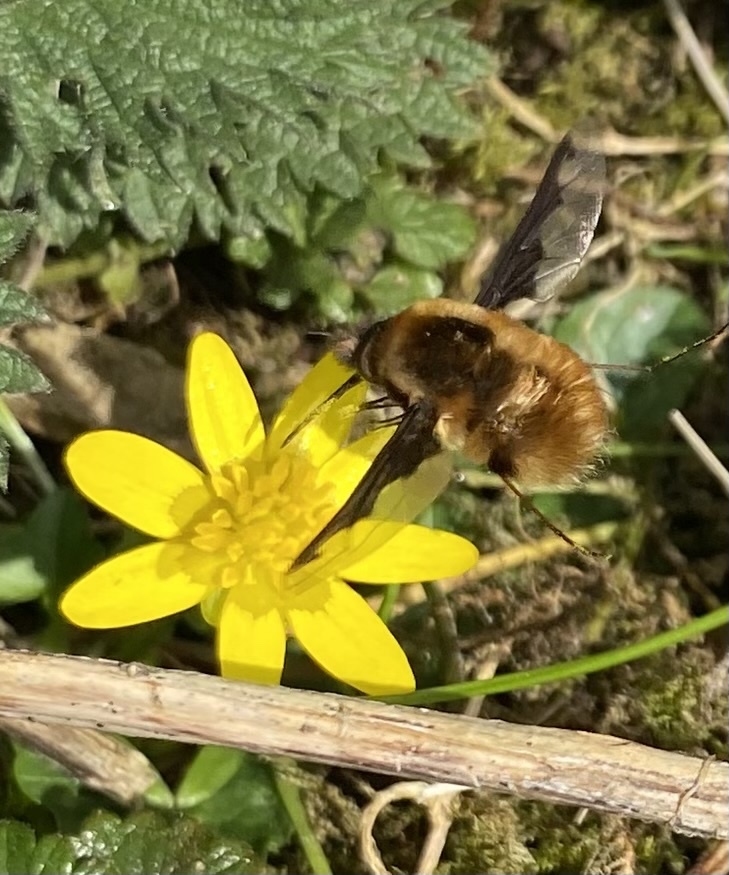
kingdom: Animalia
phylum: Arthropoda
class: Insecta
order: Diptera
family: Bombyliidae
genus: Bombylius
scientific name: Bombylius major
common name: Bee fly
